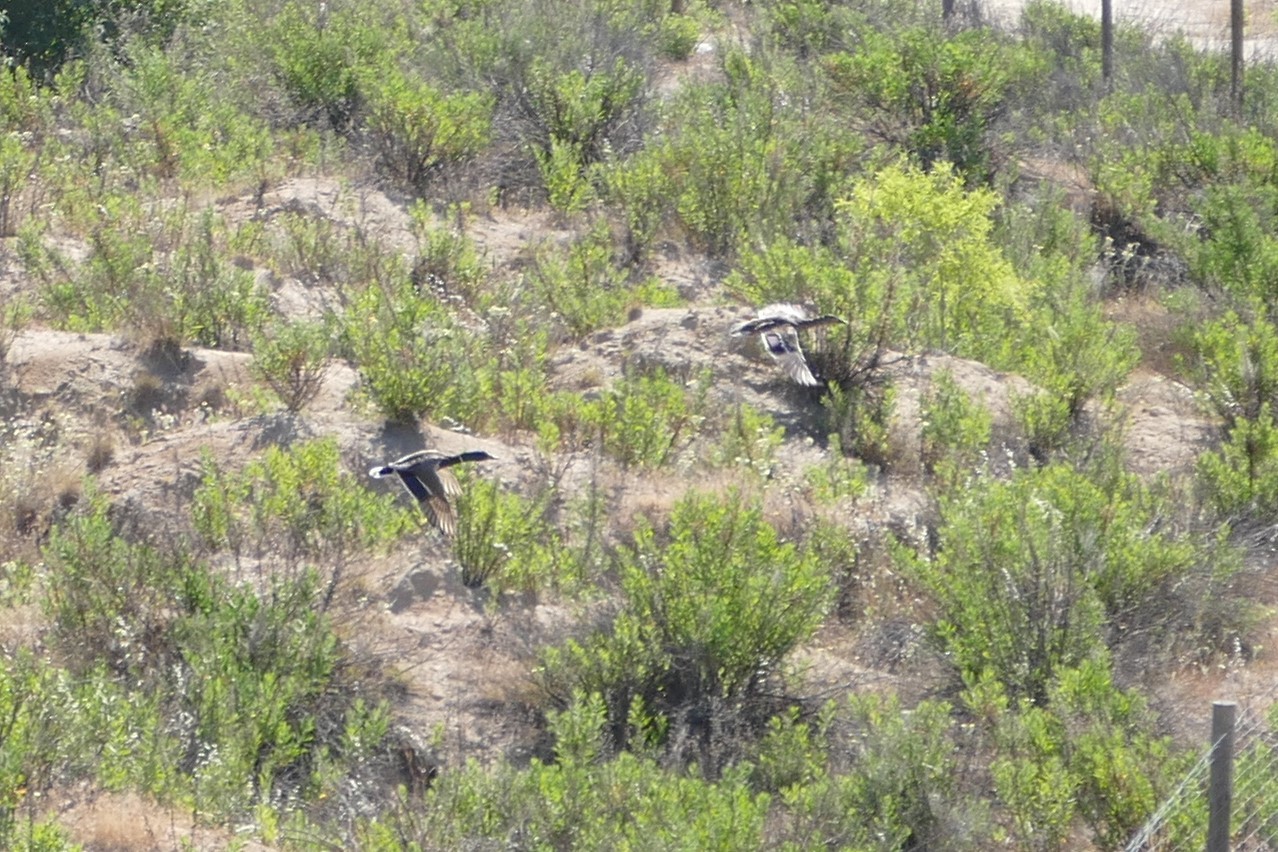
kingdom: Animalia
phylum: Chordata
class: Aves
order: Anseriformes
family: Anatidae
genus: Anas
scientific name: Anas platyrhynchos
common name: Mallard
